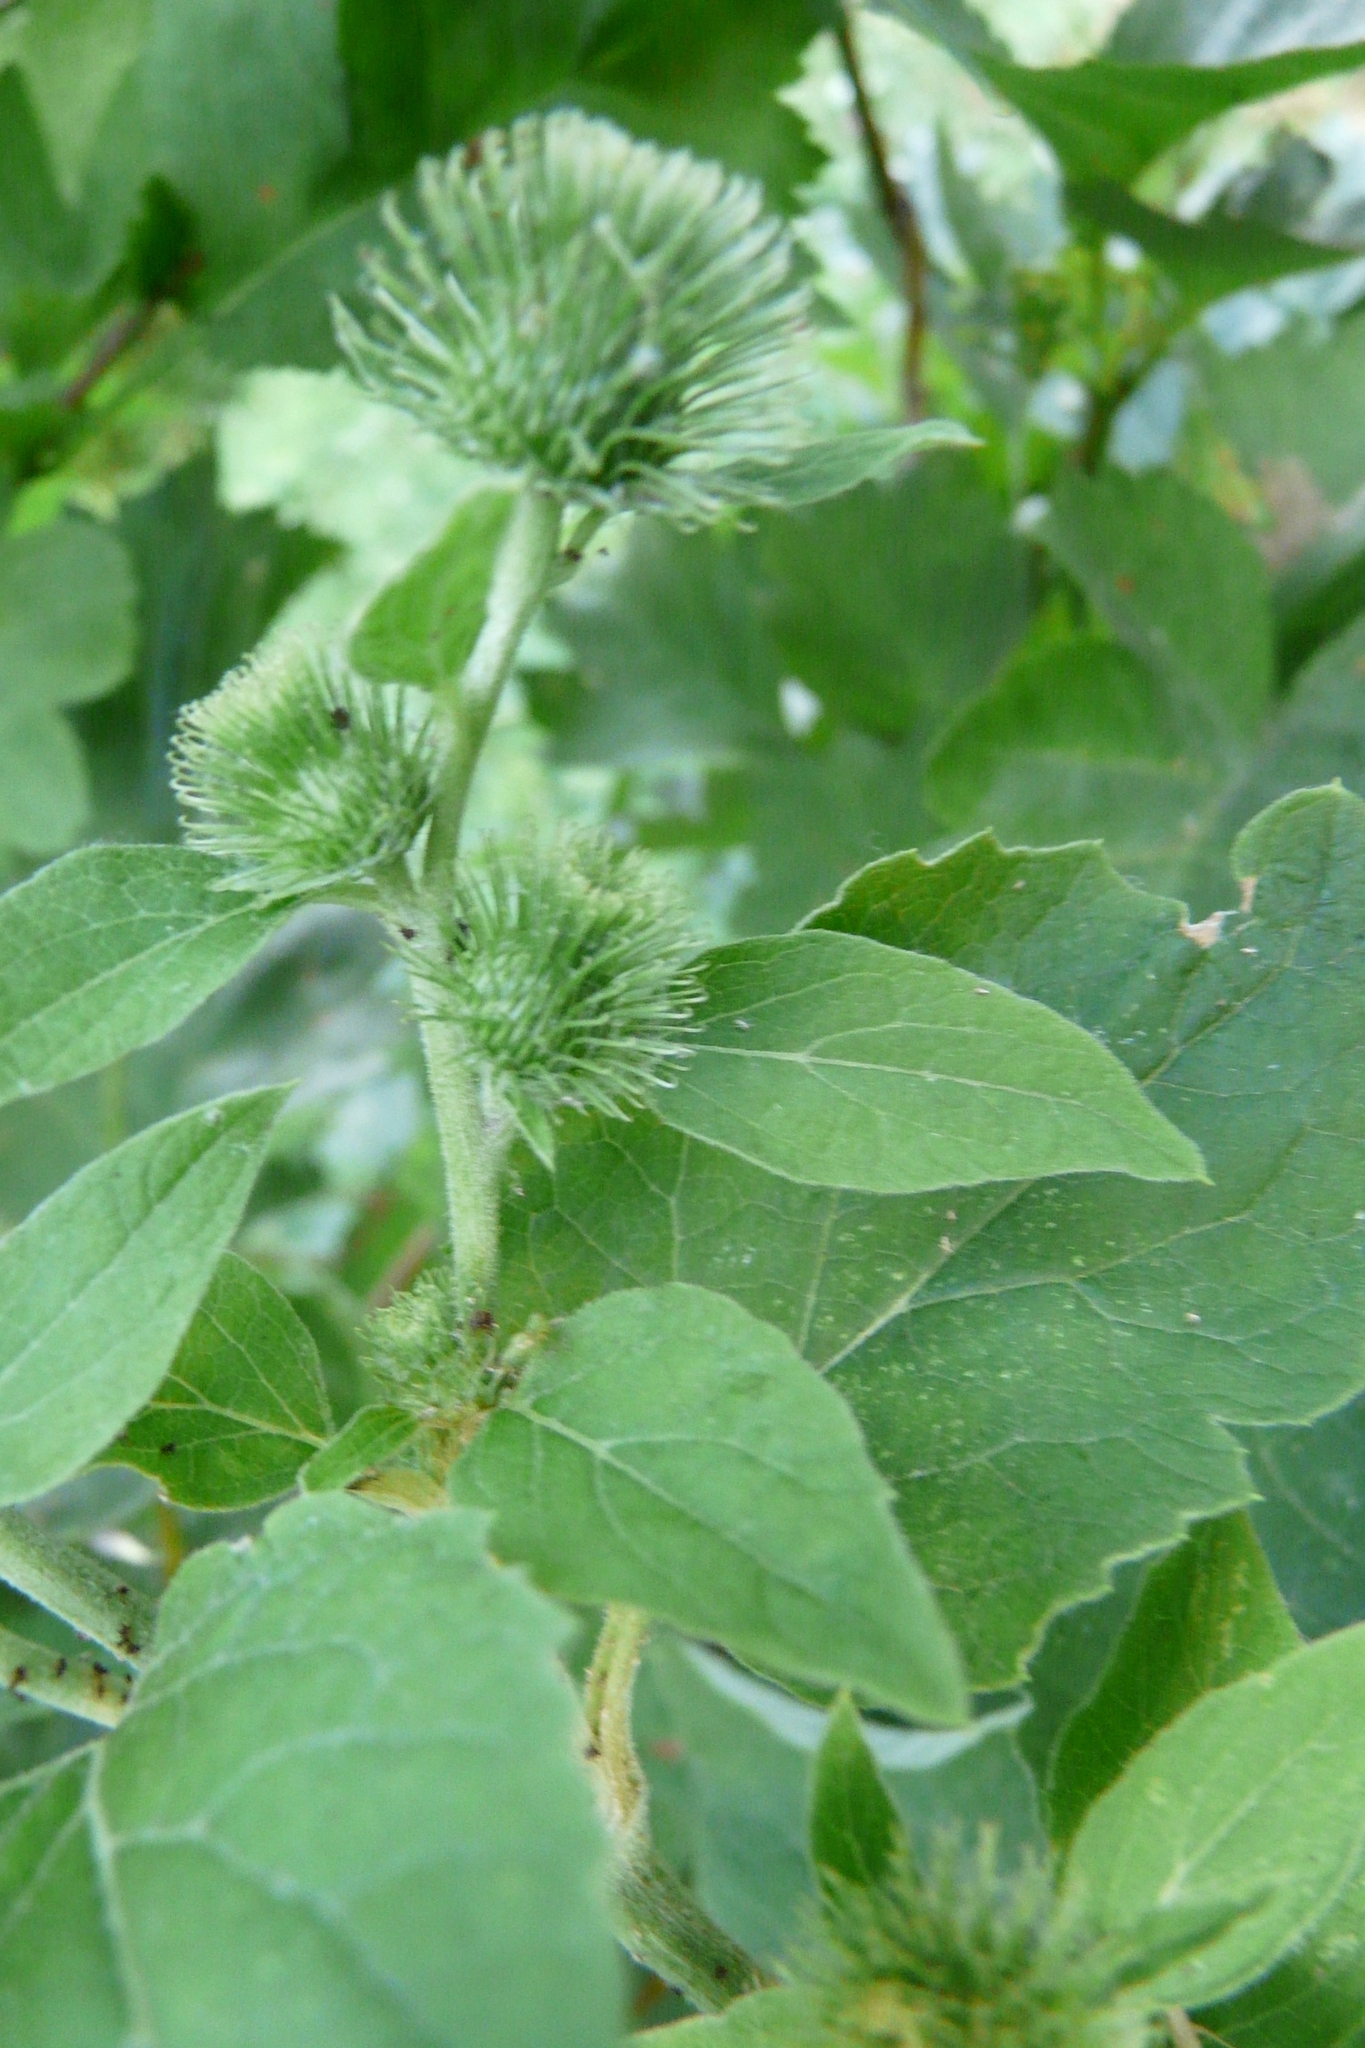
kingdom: Plantae
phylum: Tracheophyta
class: Magnoliopsida
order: Asterales
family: Asteraceae
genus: Arctium
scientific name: Arctium minus
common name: Lesser burdock
